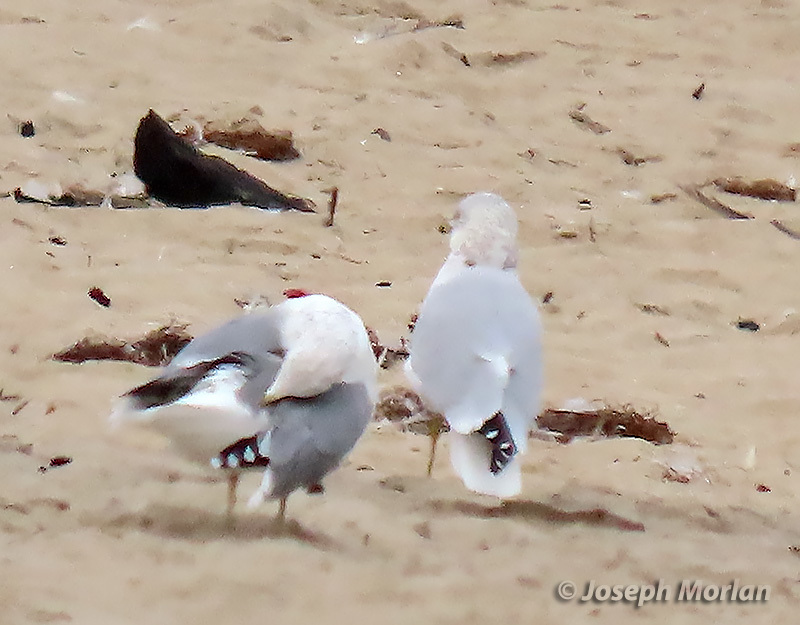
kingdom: Animalia
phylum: Chordata
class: Aves
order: Charadriiformes
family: Laridae
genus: Larus
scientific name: Larus delawarensis
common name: Ring-billed gull
